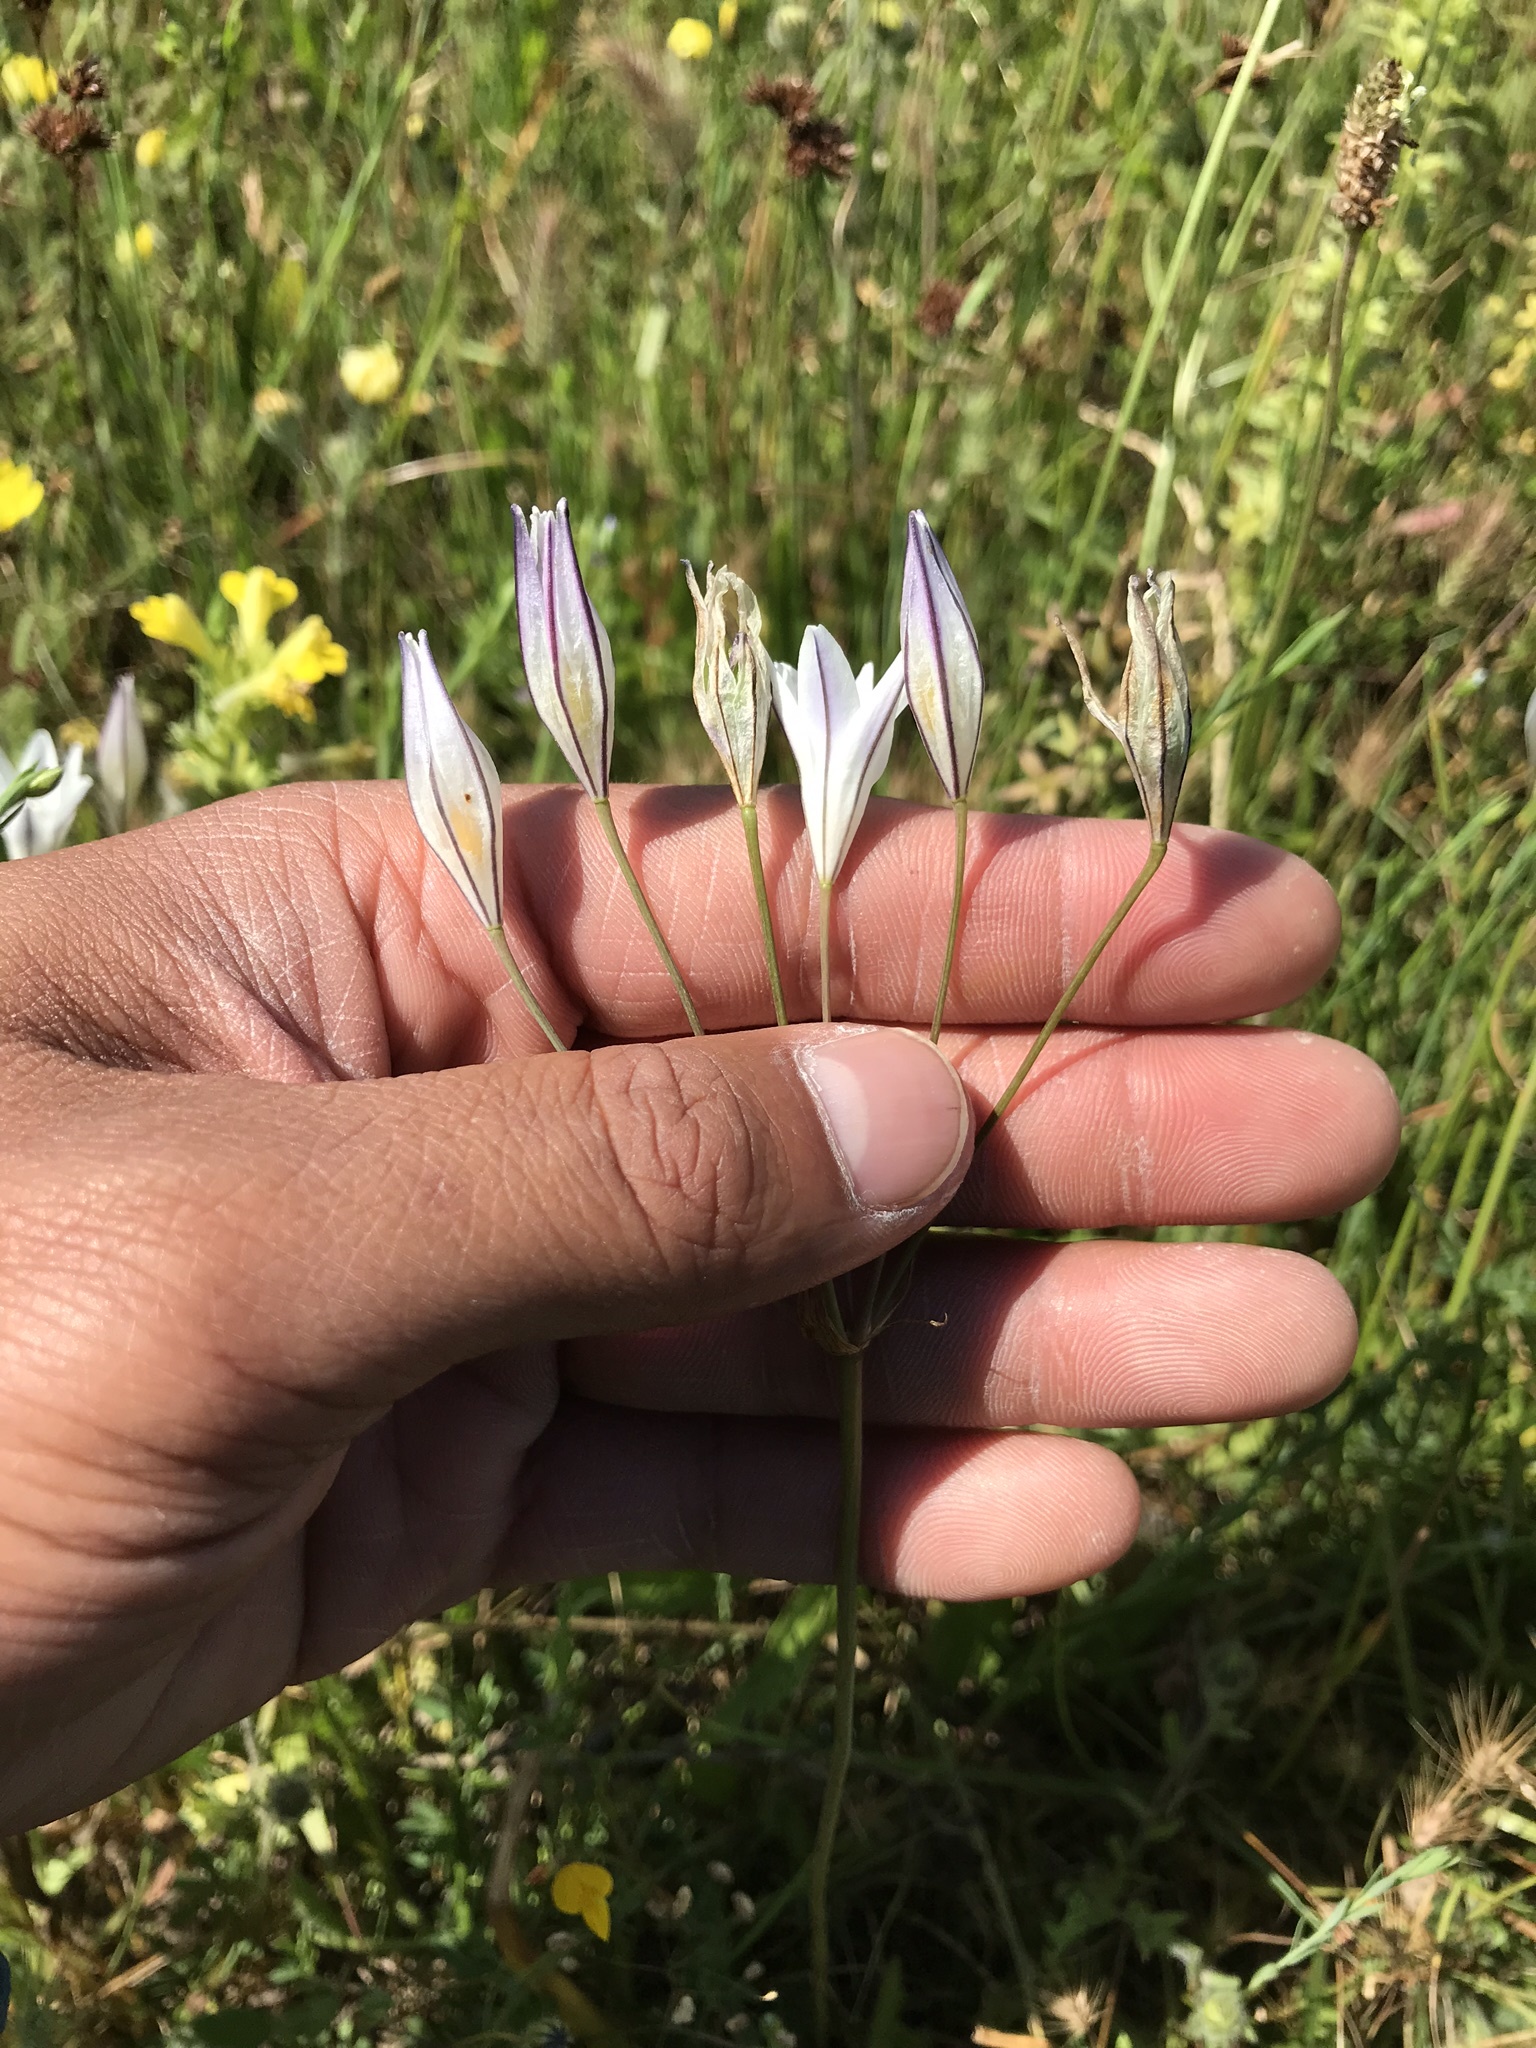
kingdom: Plantae
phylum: Tracheophyta
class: Liliopsida
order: Asparagales
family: Asparagaceae
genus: Triteleia
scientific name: Triteleia peduncularis
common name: Long-ray brodiaea
